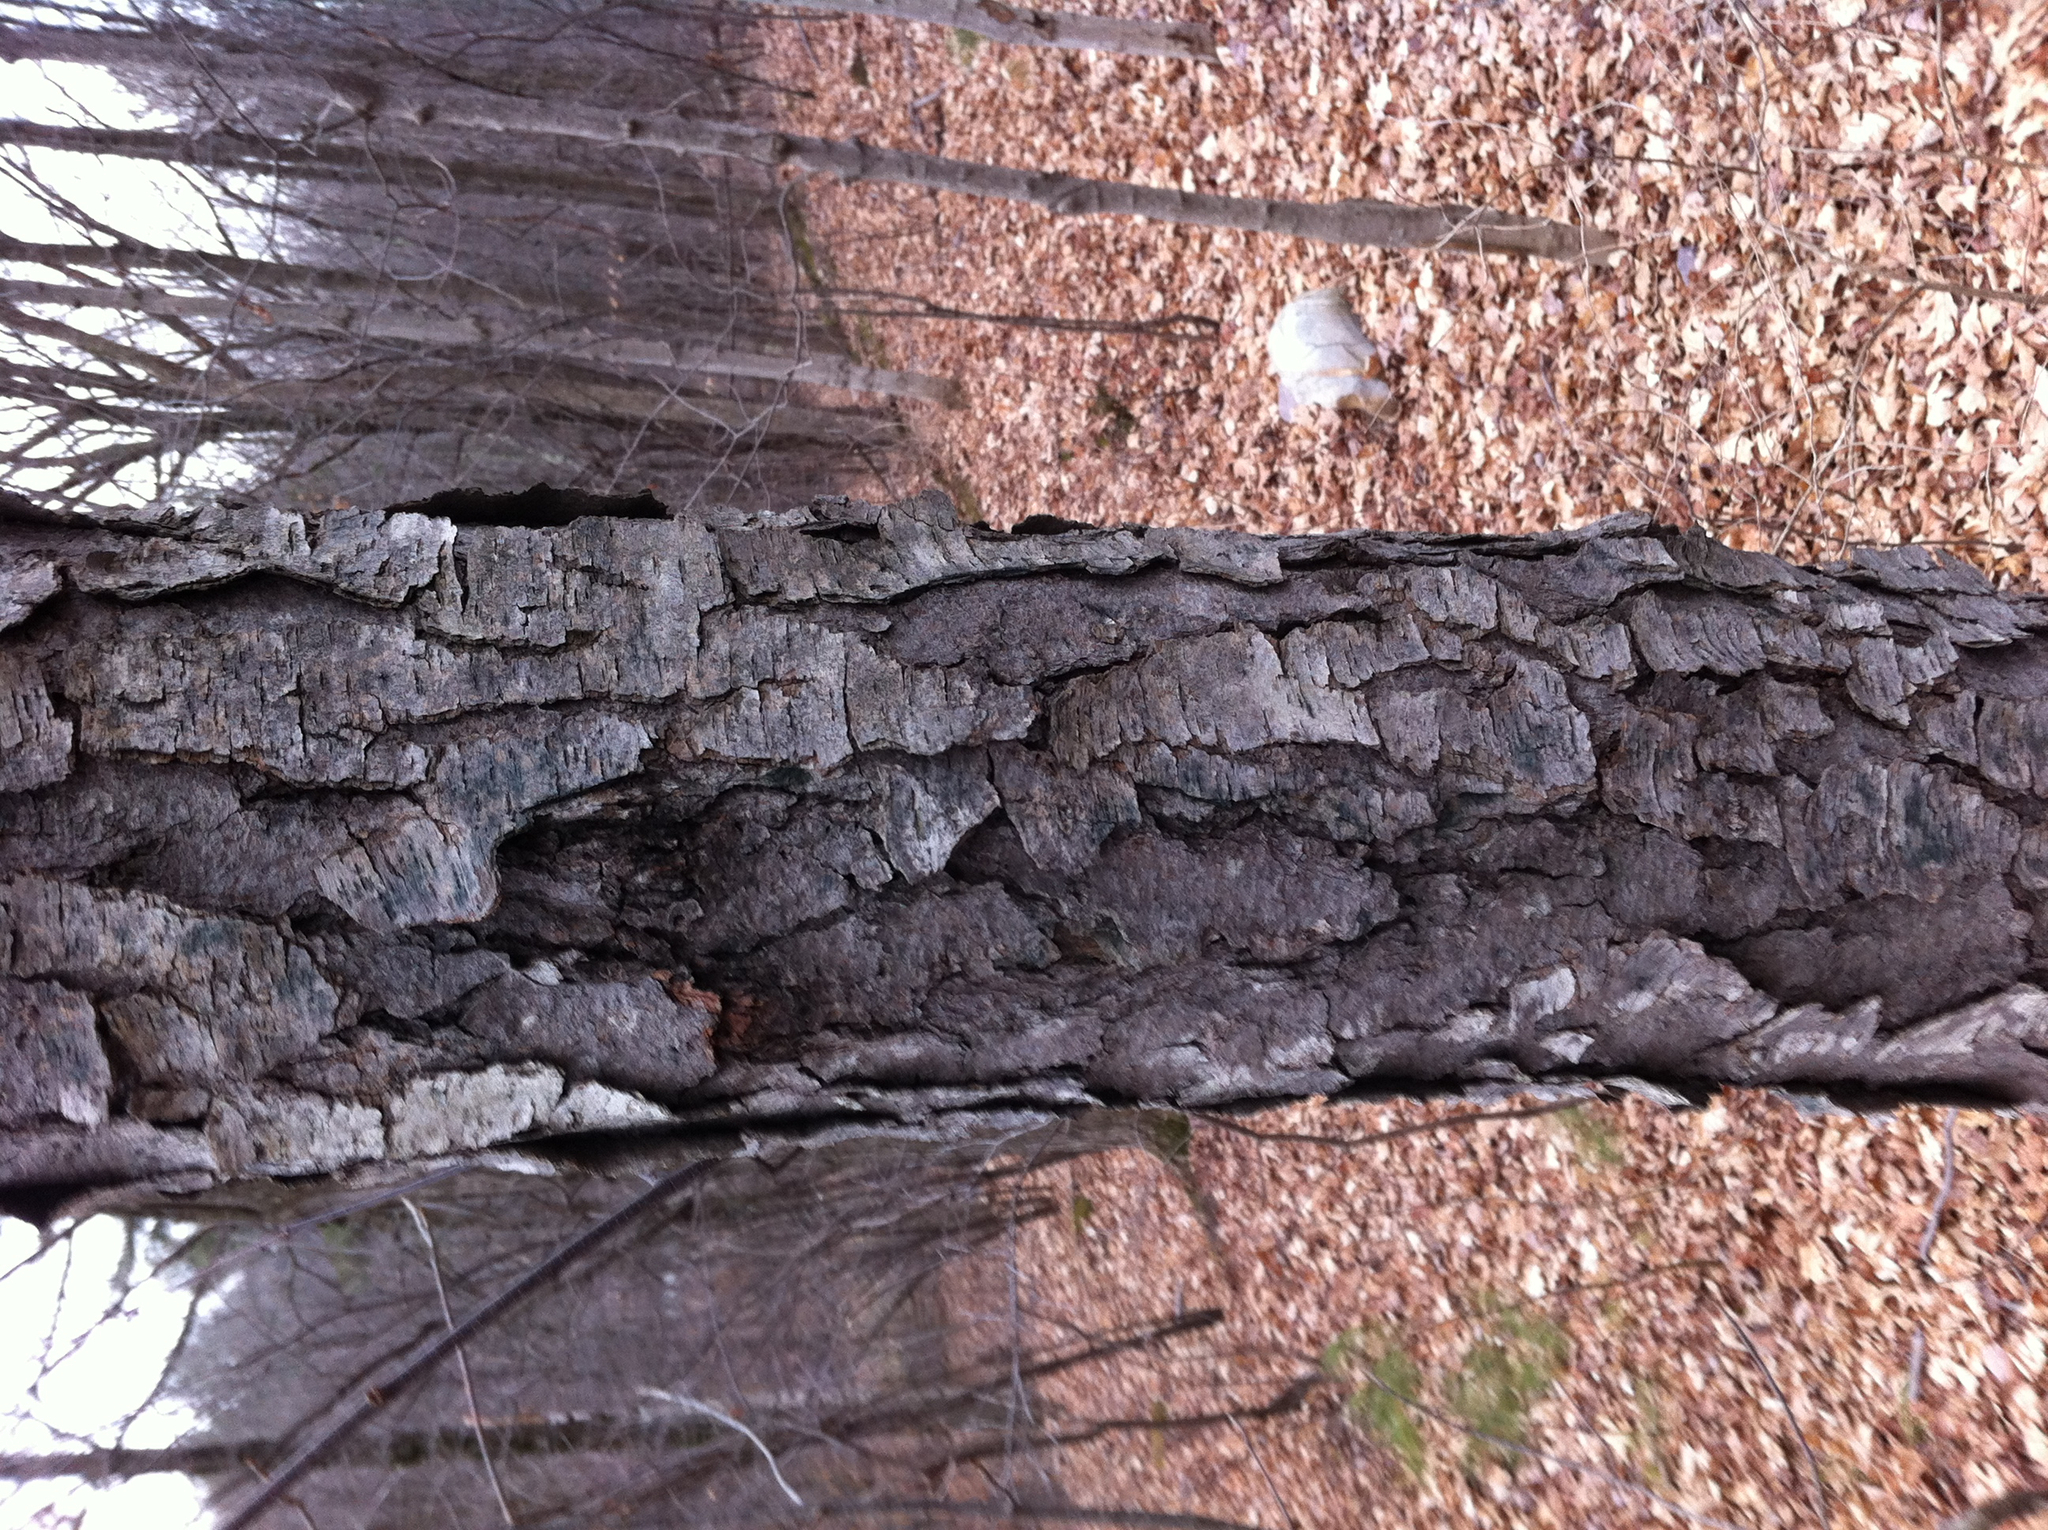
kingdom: Plantae
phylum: Tracheophyta
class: Magnoliopsida
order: Rosales
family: Rosaceae
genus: Prunus
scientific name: Prunus serotina
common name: Black cherry
